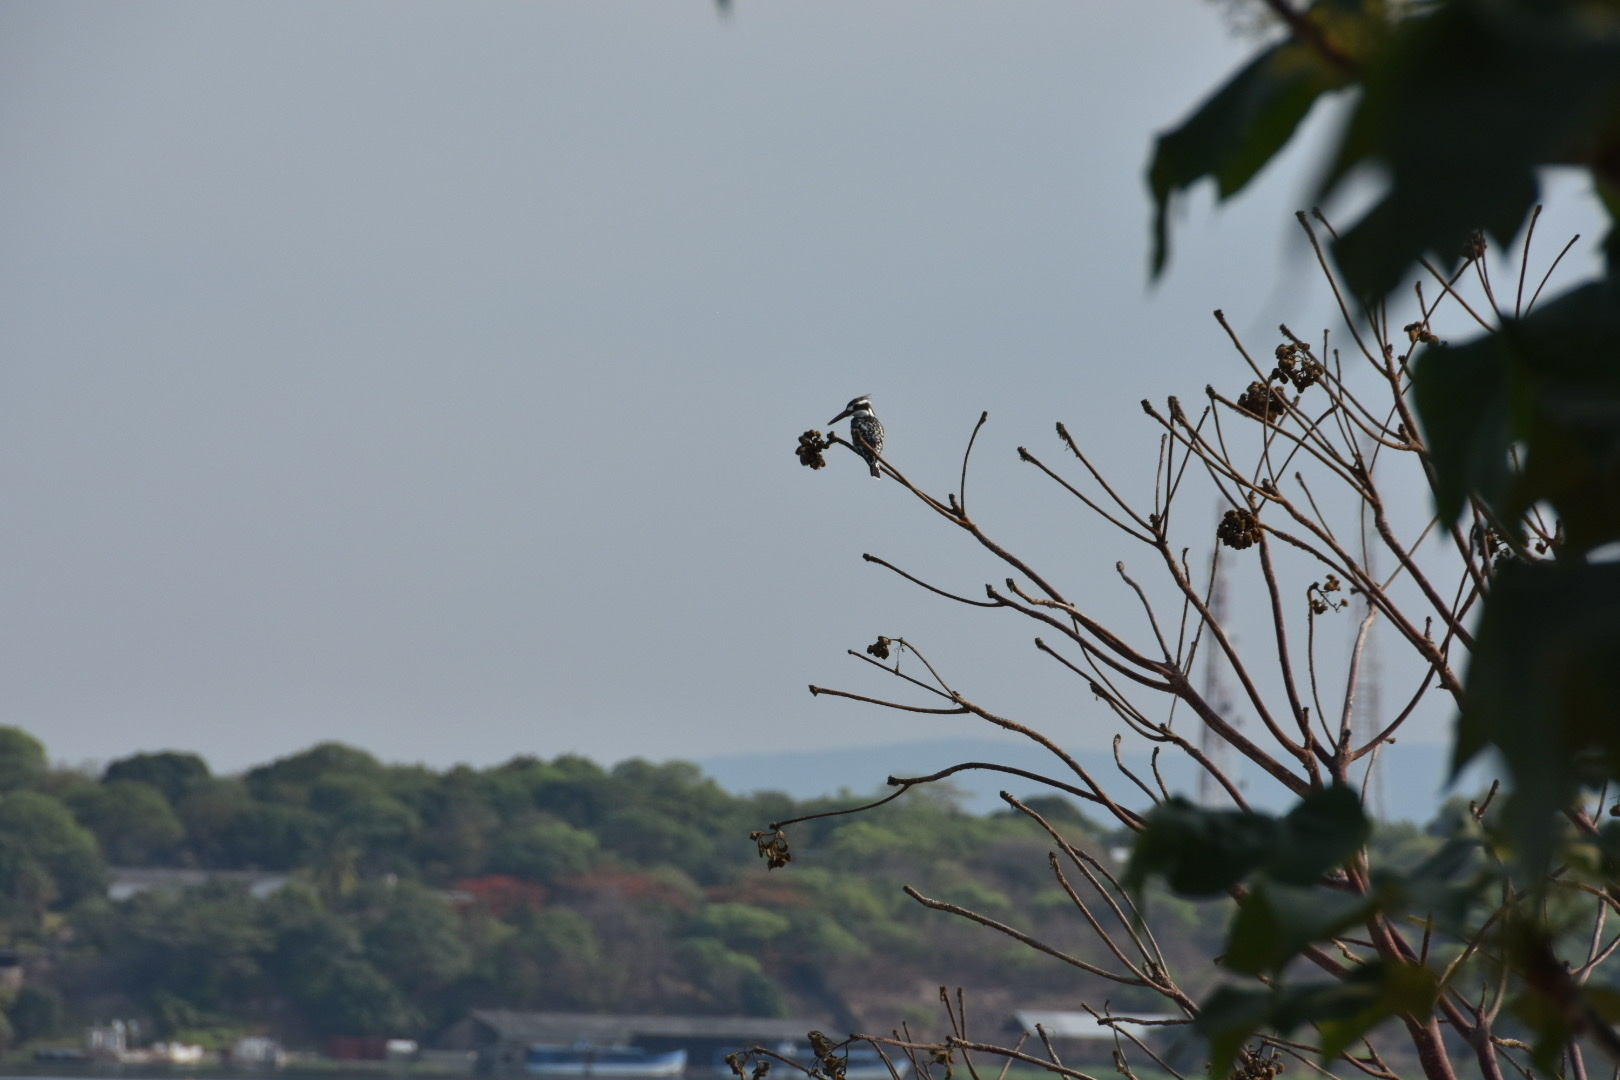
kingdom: Animalia
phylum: Chordata
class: Aves
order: Coraciiformes
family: Alcedinidae
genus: Ceryle
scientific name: Ceryle rudis
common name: Pied kingfisher
